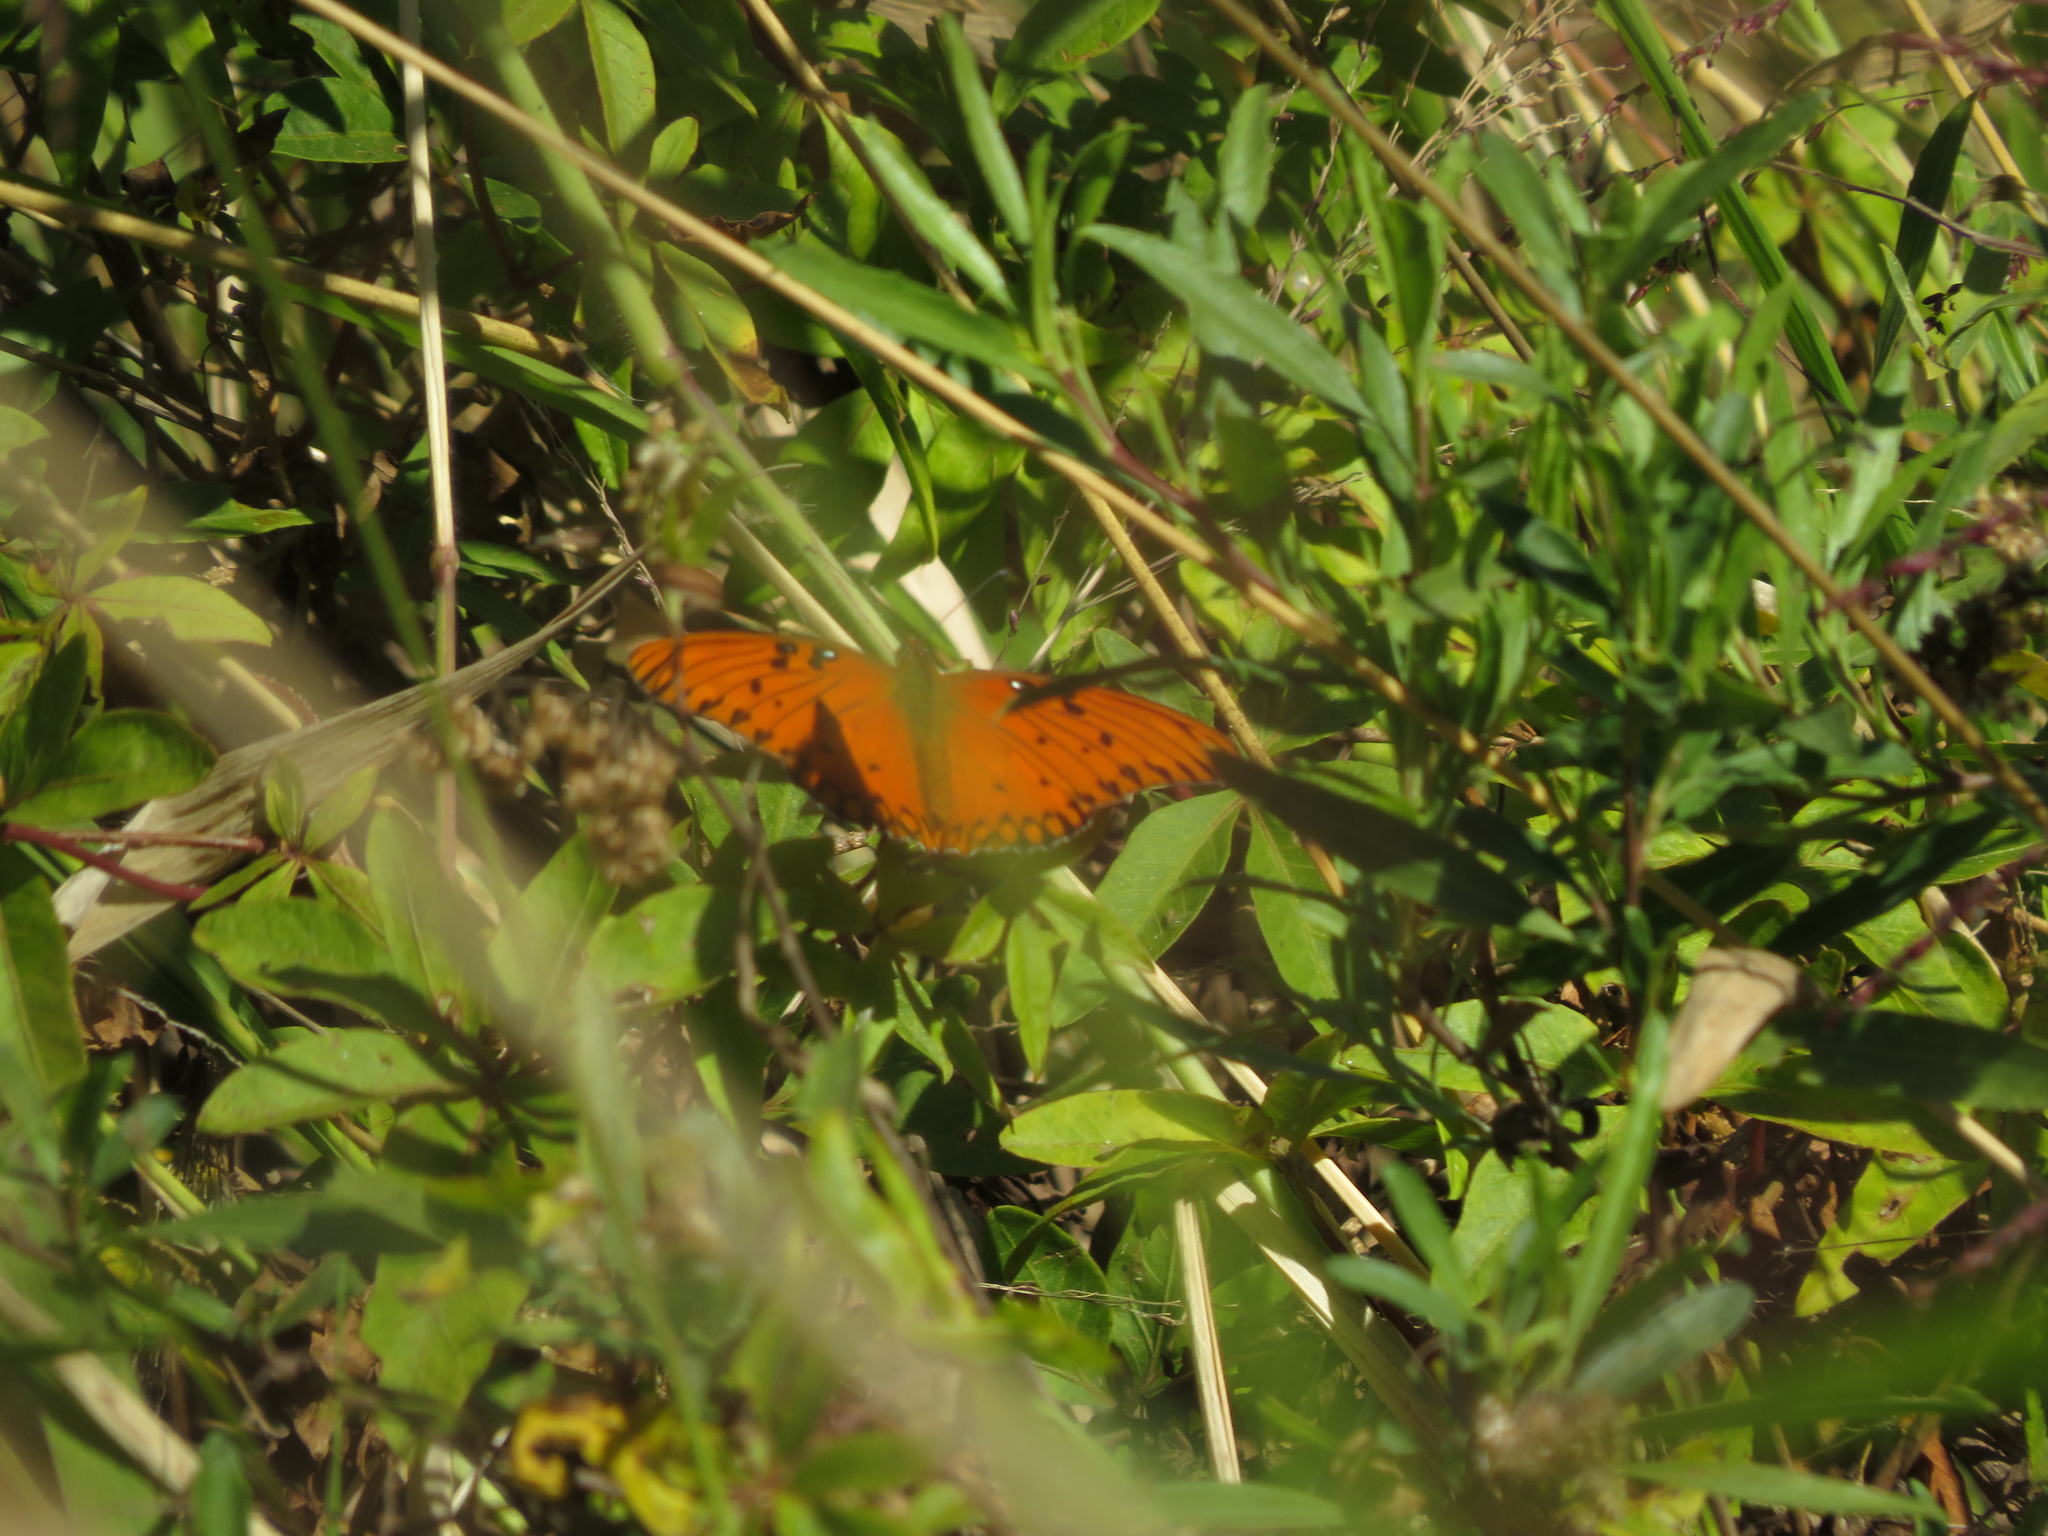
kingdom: Animalia
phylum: Arthropoda
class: Insecta
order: Lepidoptera
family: Nymphalidae
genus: Dione
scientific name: Dione vanillae
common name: Gulf fritillary
